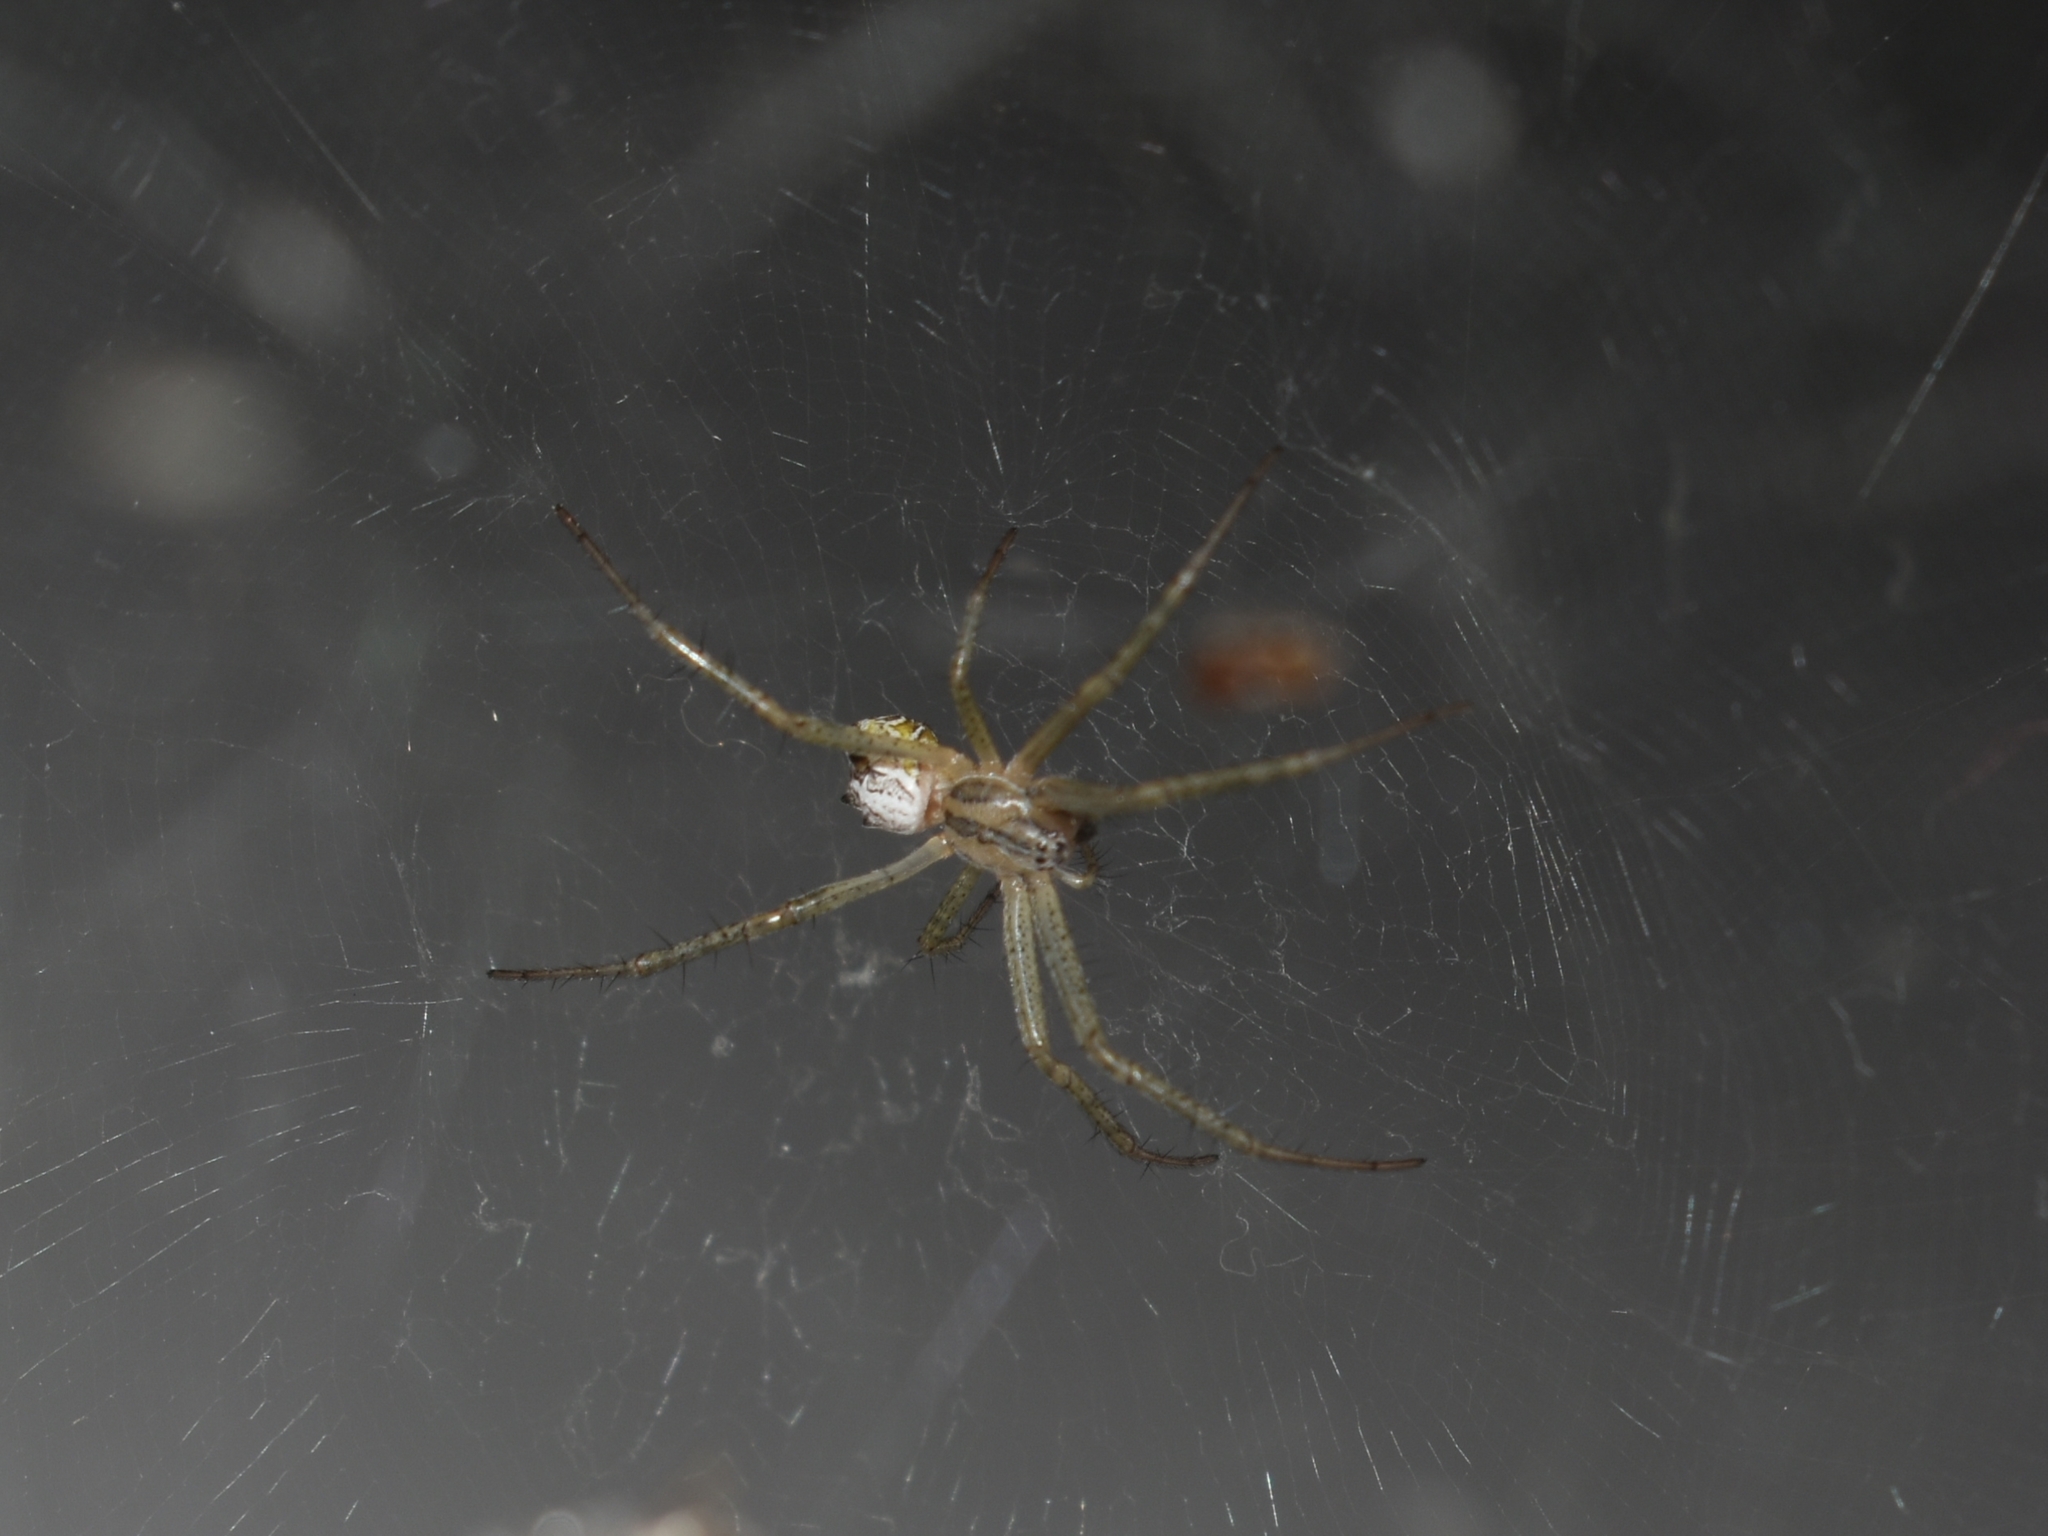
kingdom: Animalia
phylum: Arthropoda
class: Arachnida
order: Araneae
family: Araneidae
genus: Cyrtophora
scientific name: Cyrtophora cicatrosa
